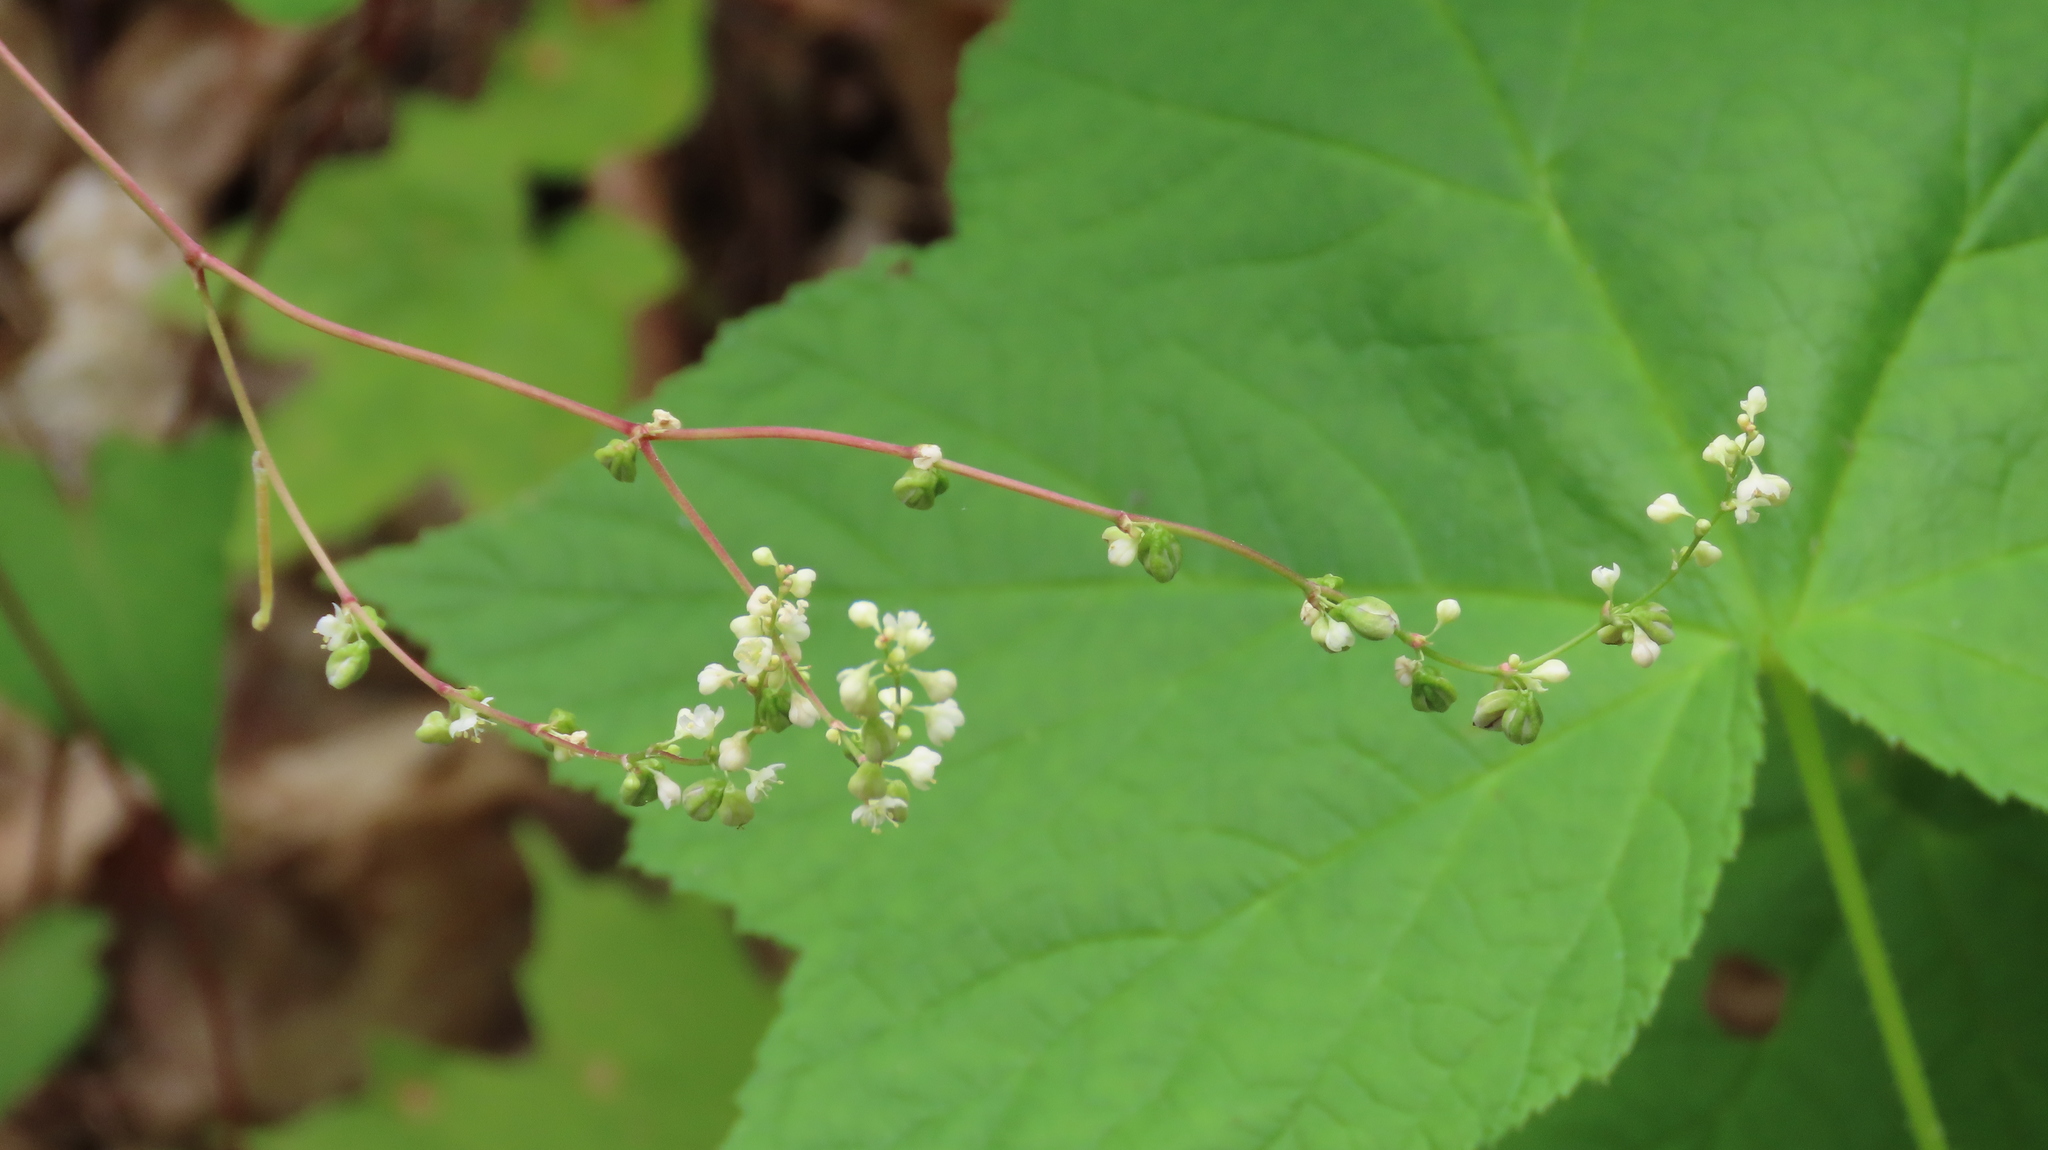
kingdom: Plantae
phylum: Tracheophyta
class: Magnoliopsida
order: Caryophyllales
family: Polygonaceae
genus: Parogonum
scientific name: Parogonum ciliinode
